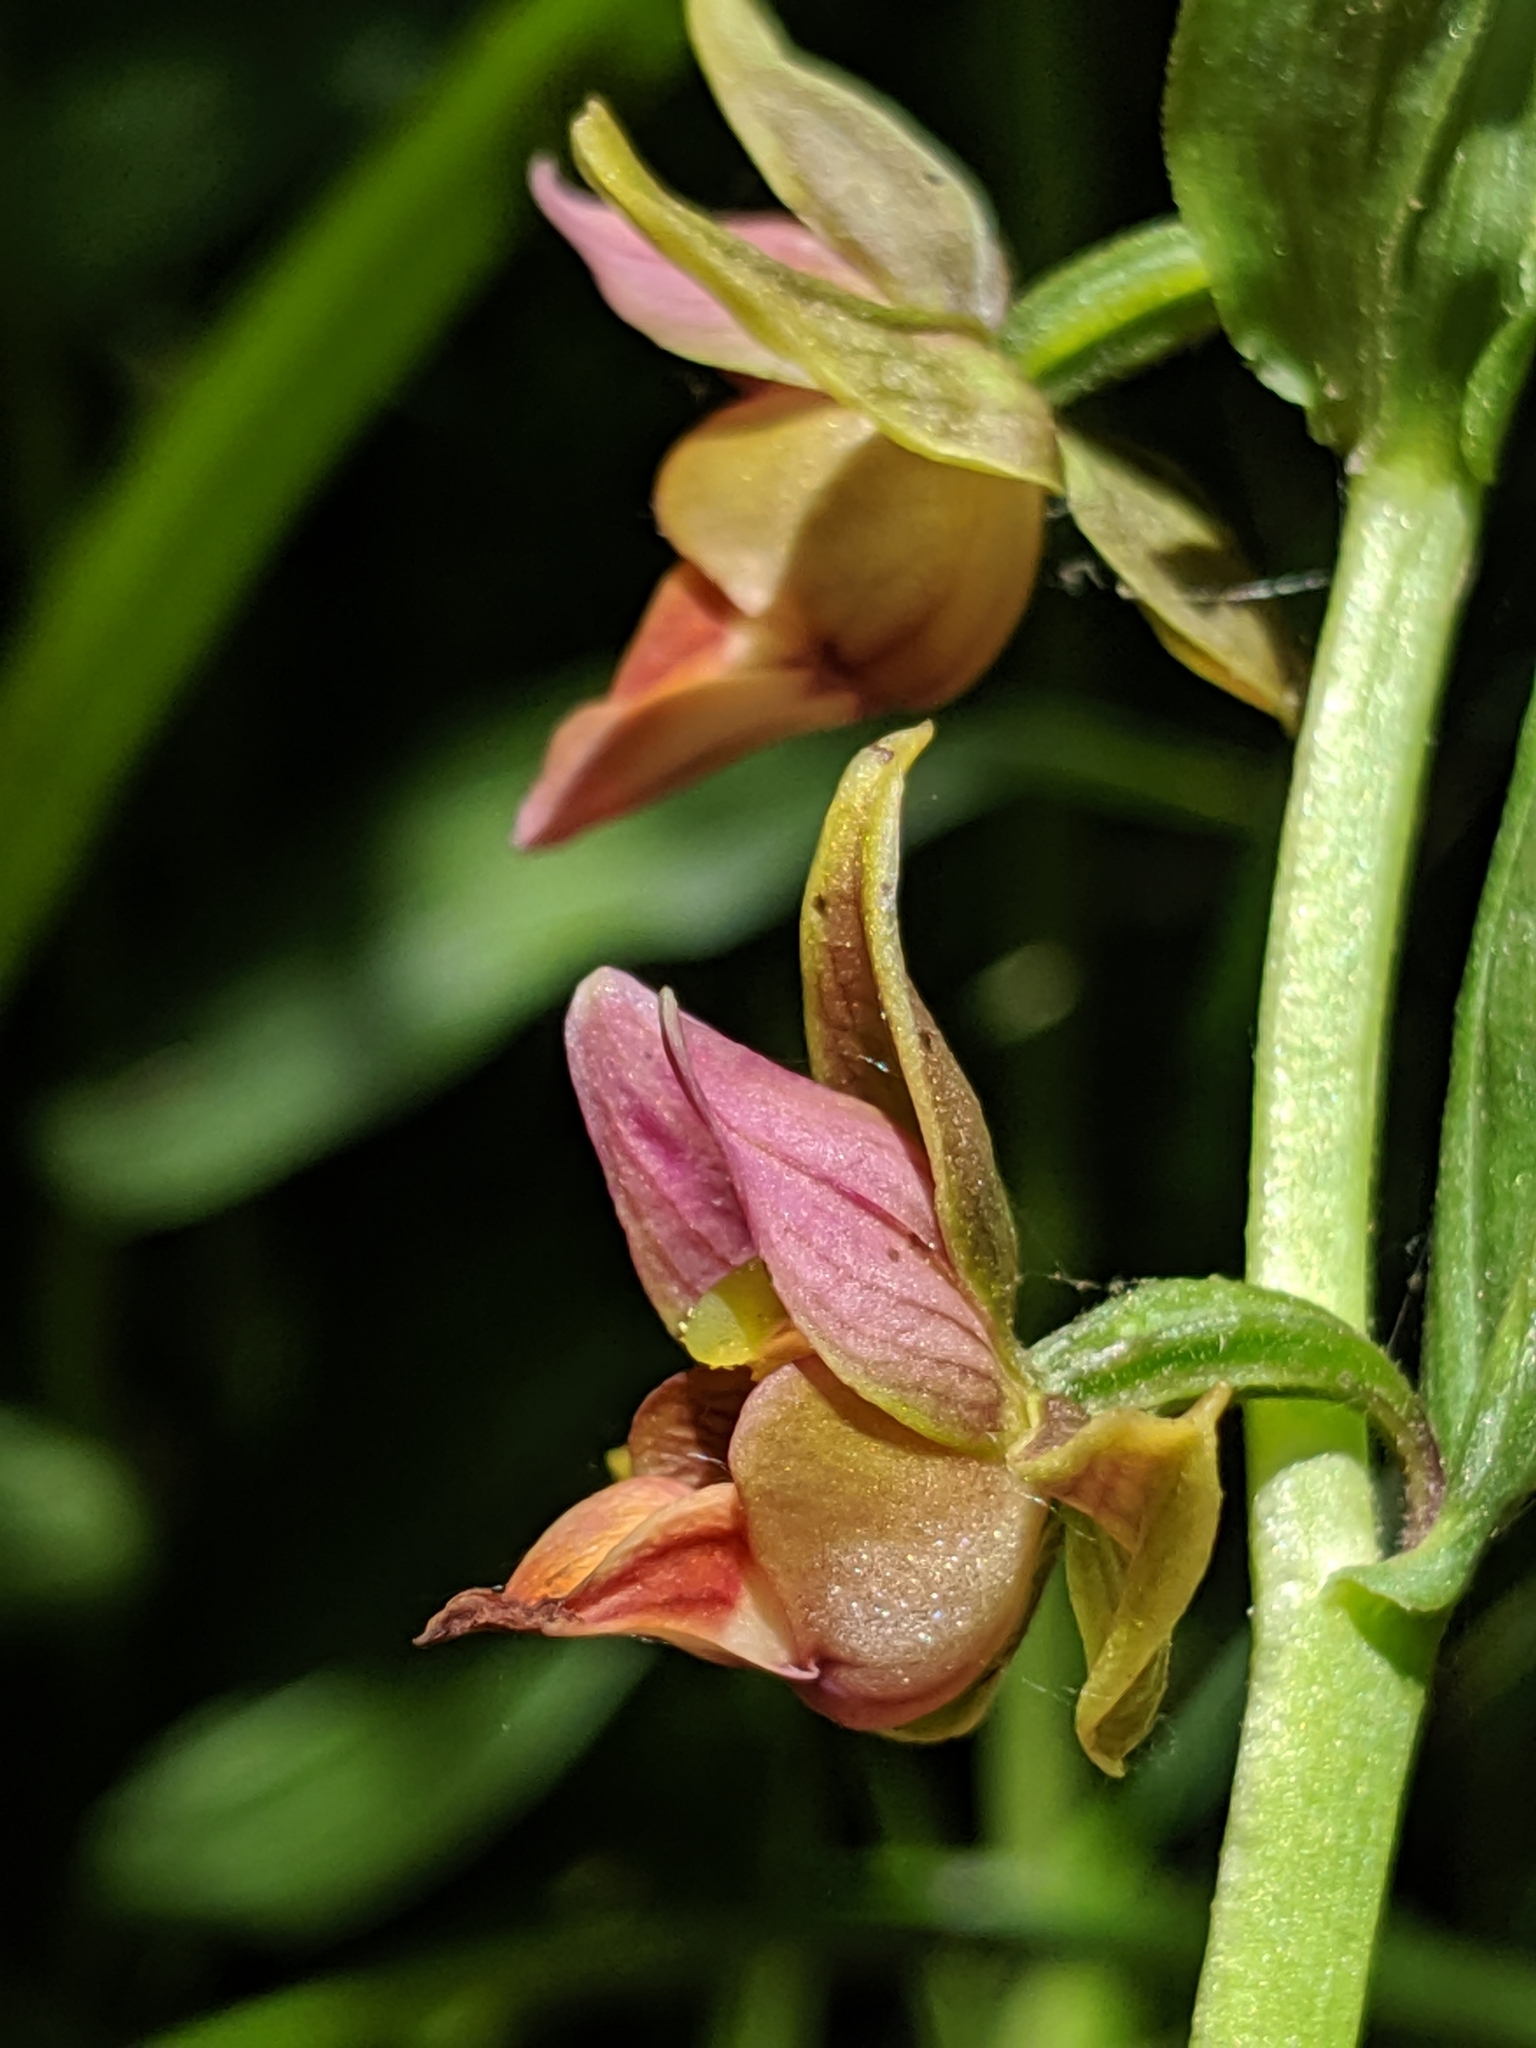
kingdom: Plantae
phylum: Tracheophyta
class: Liliopsida
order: Asparagales
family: Orchidaceae
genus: Epipactis
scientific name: Epipactis gigantea
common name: Chatterbox
